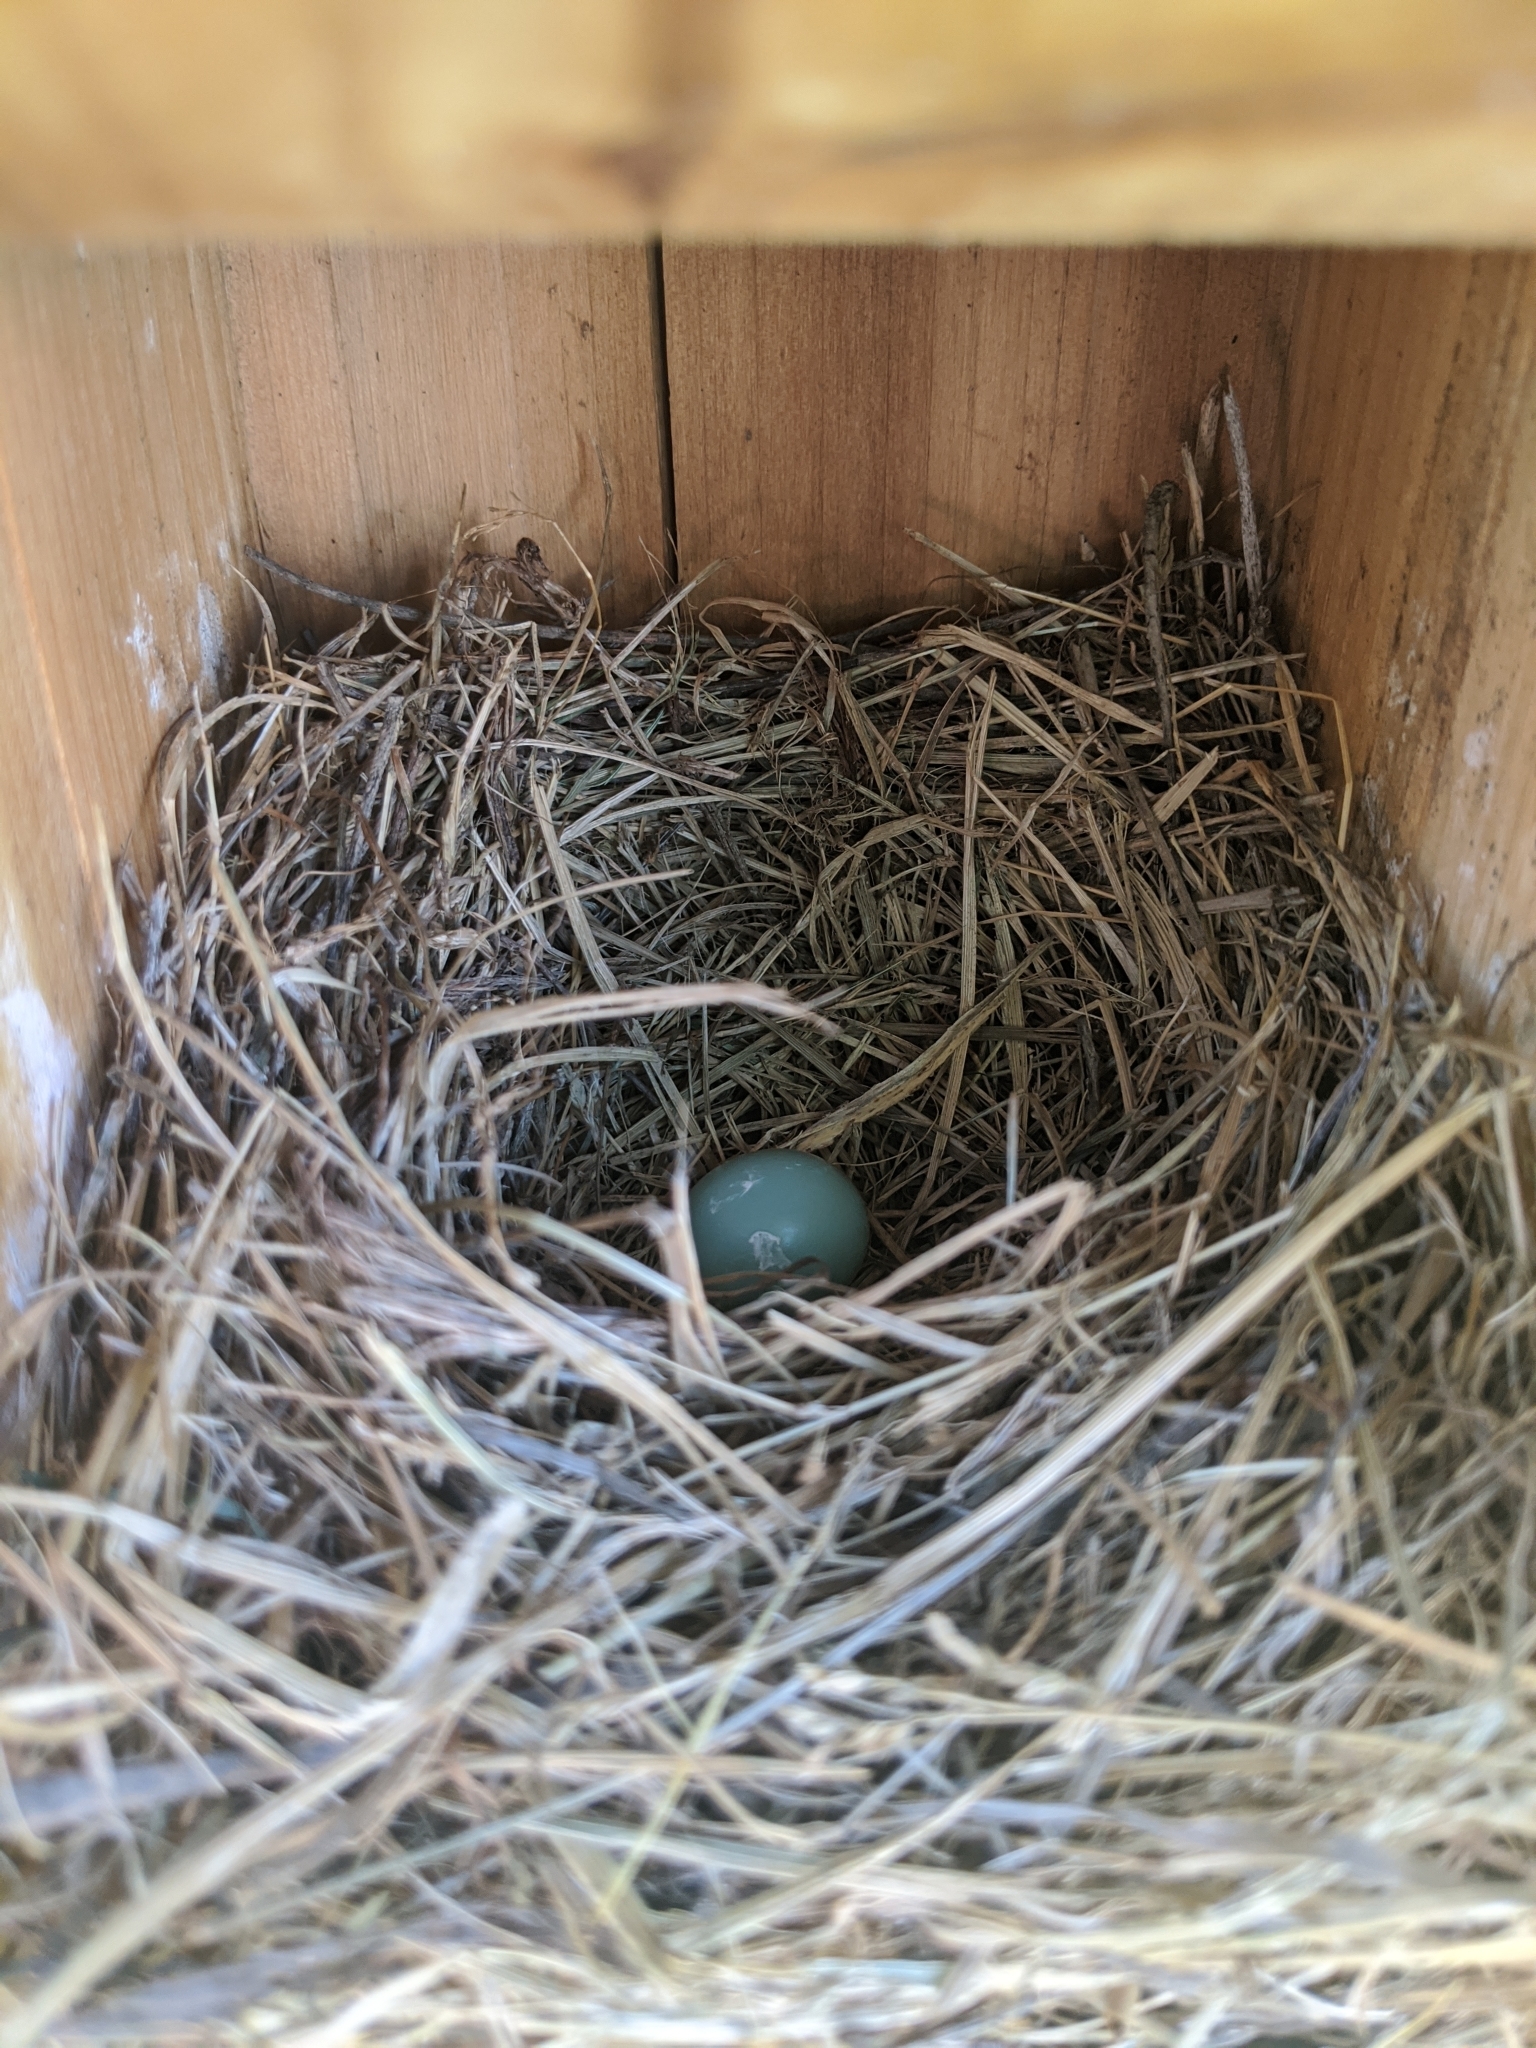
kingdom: Animalia
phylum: Chordata
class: Aves
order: Passeriformes
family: Turdidae
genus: Sialia
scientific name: Sialia sialis
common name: Eastern bluebird
